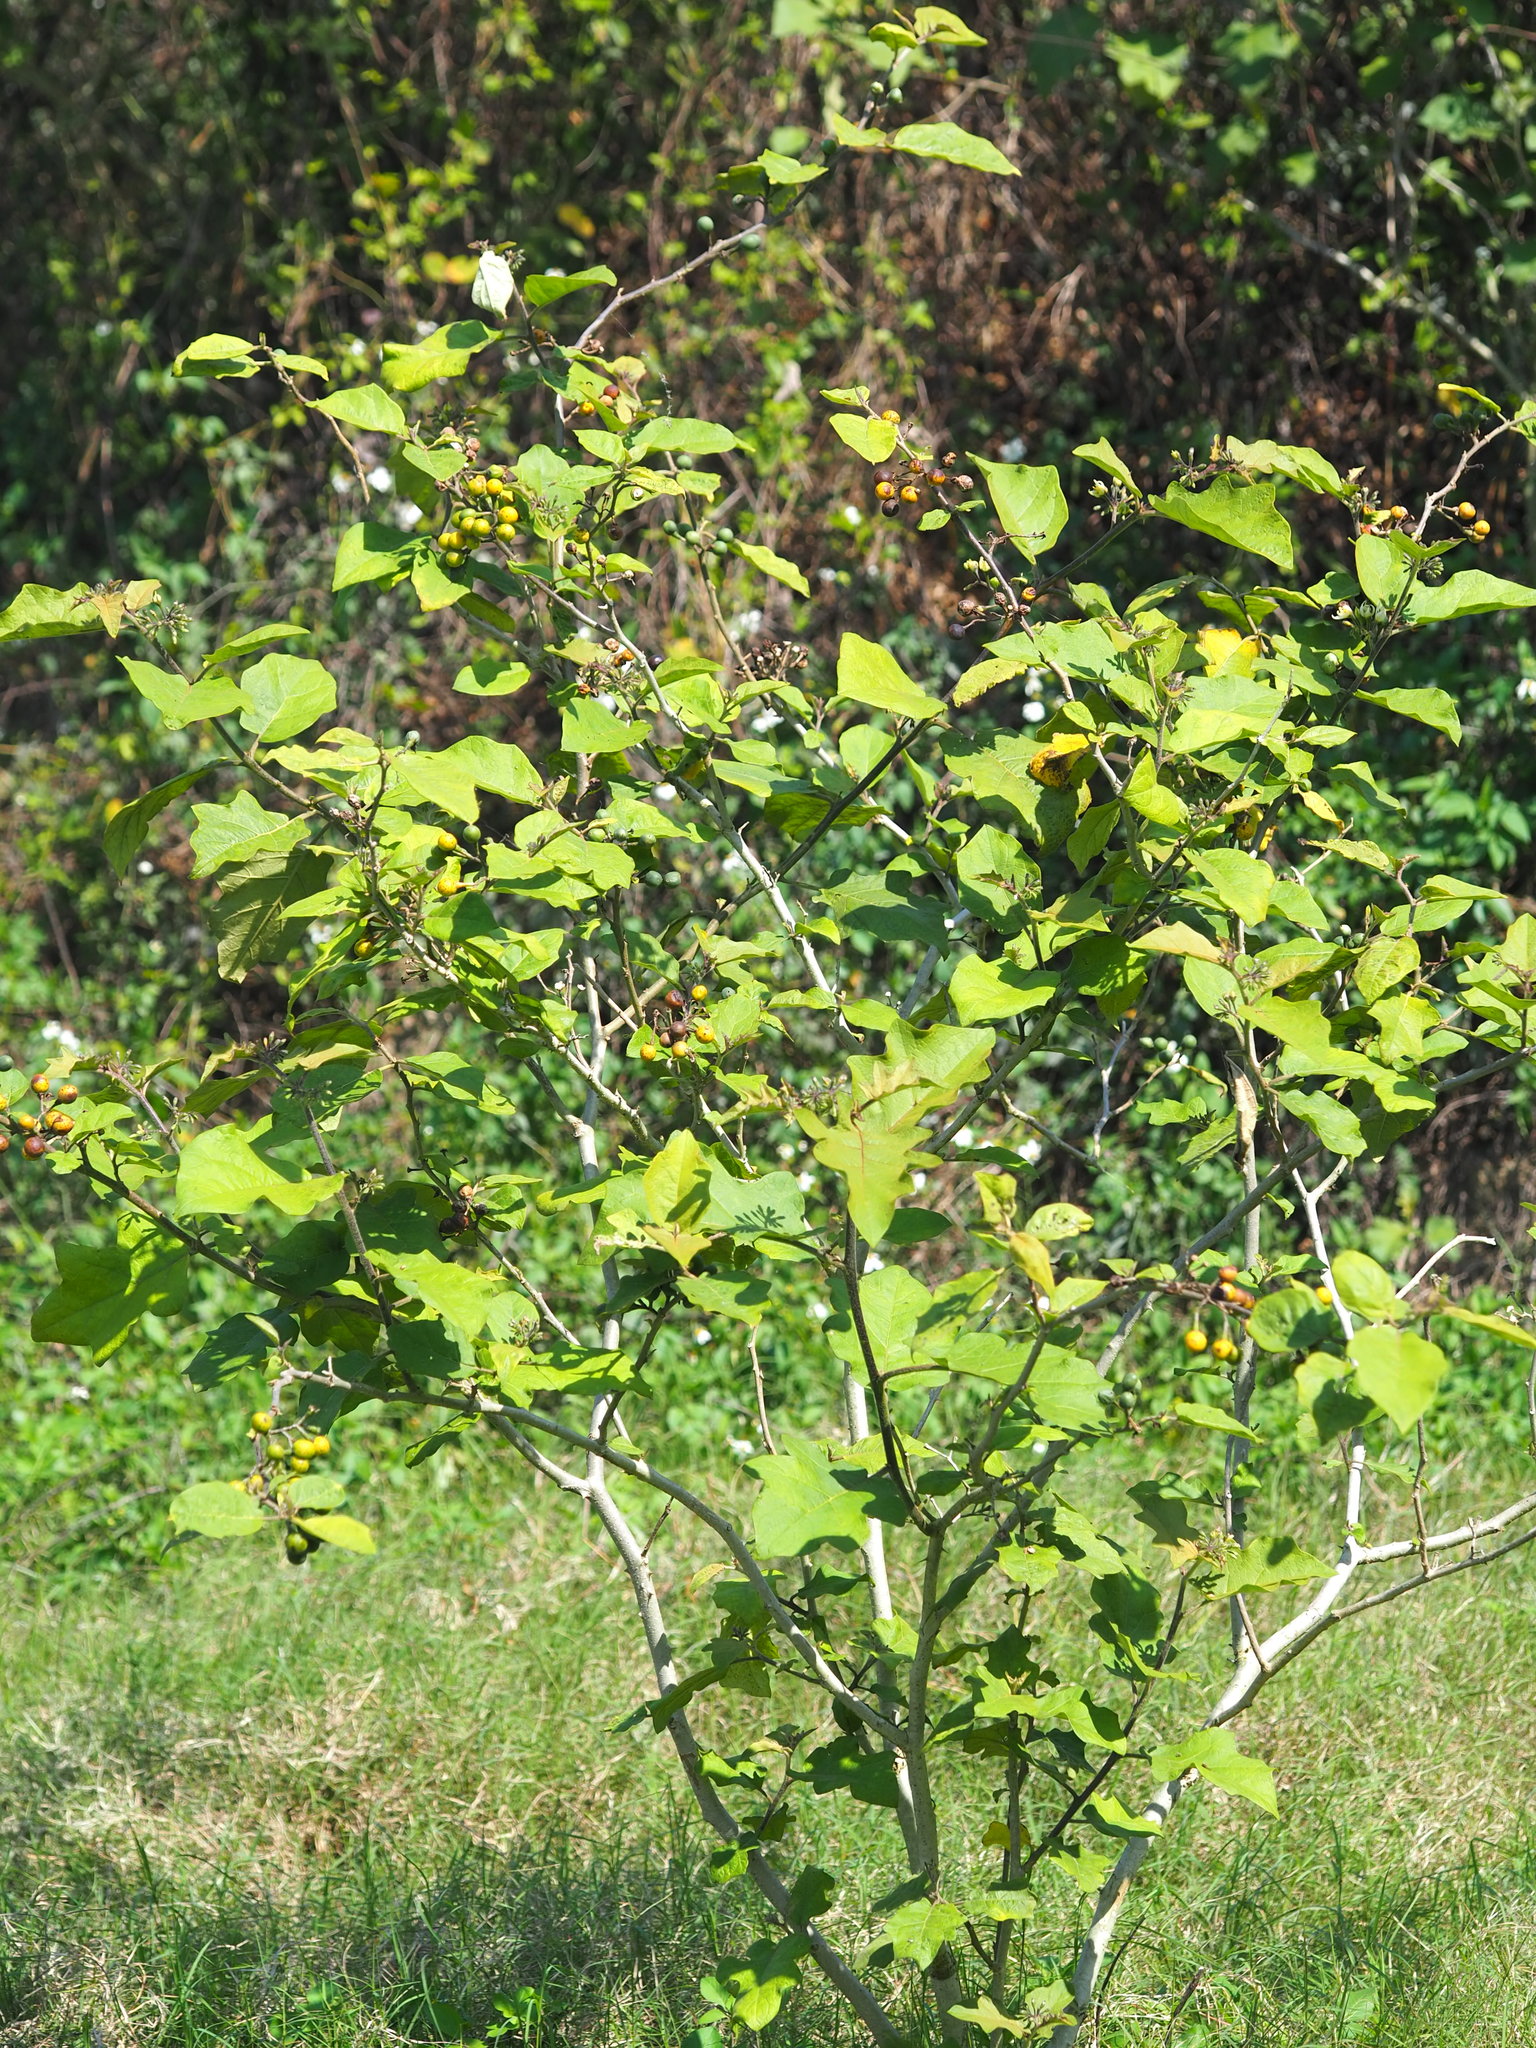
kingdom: Plantae
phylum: Tracheophyta
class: Magnoliopsida
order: Solanales
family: Solanaceae
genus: Solanum
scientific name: Solanum torvum
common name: Turkey berry
